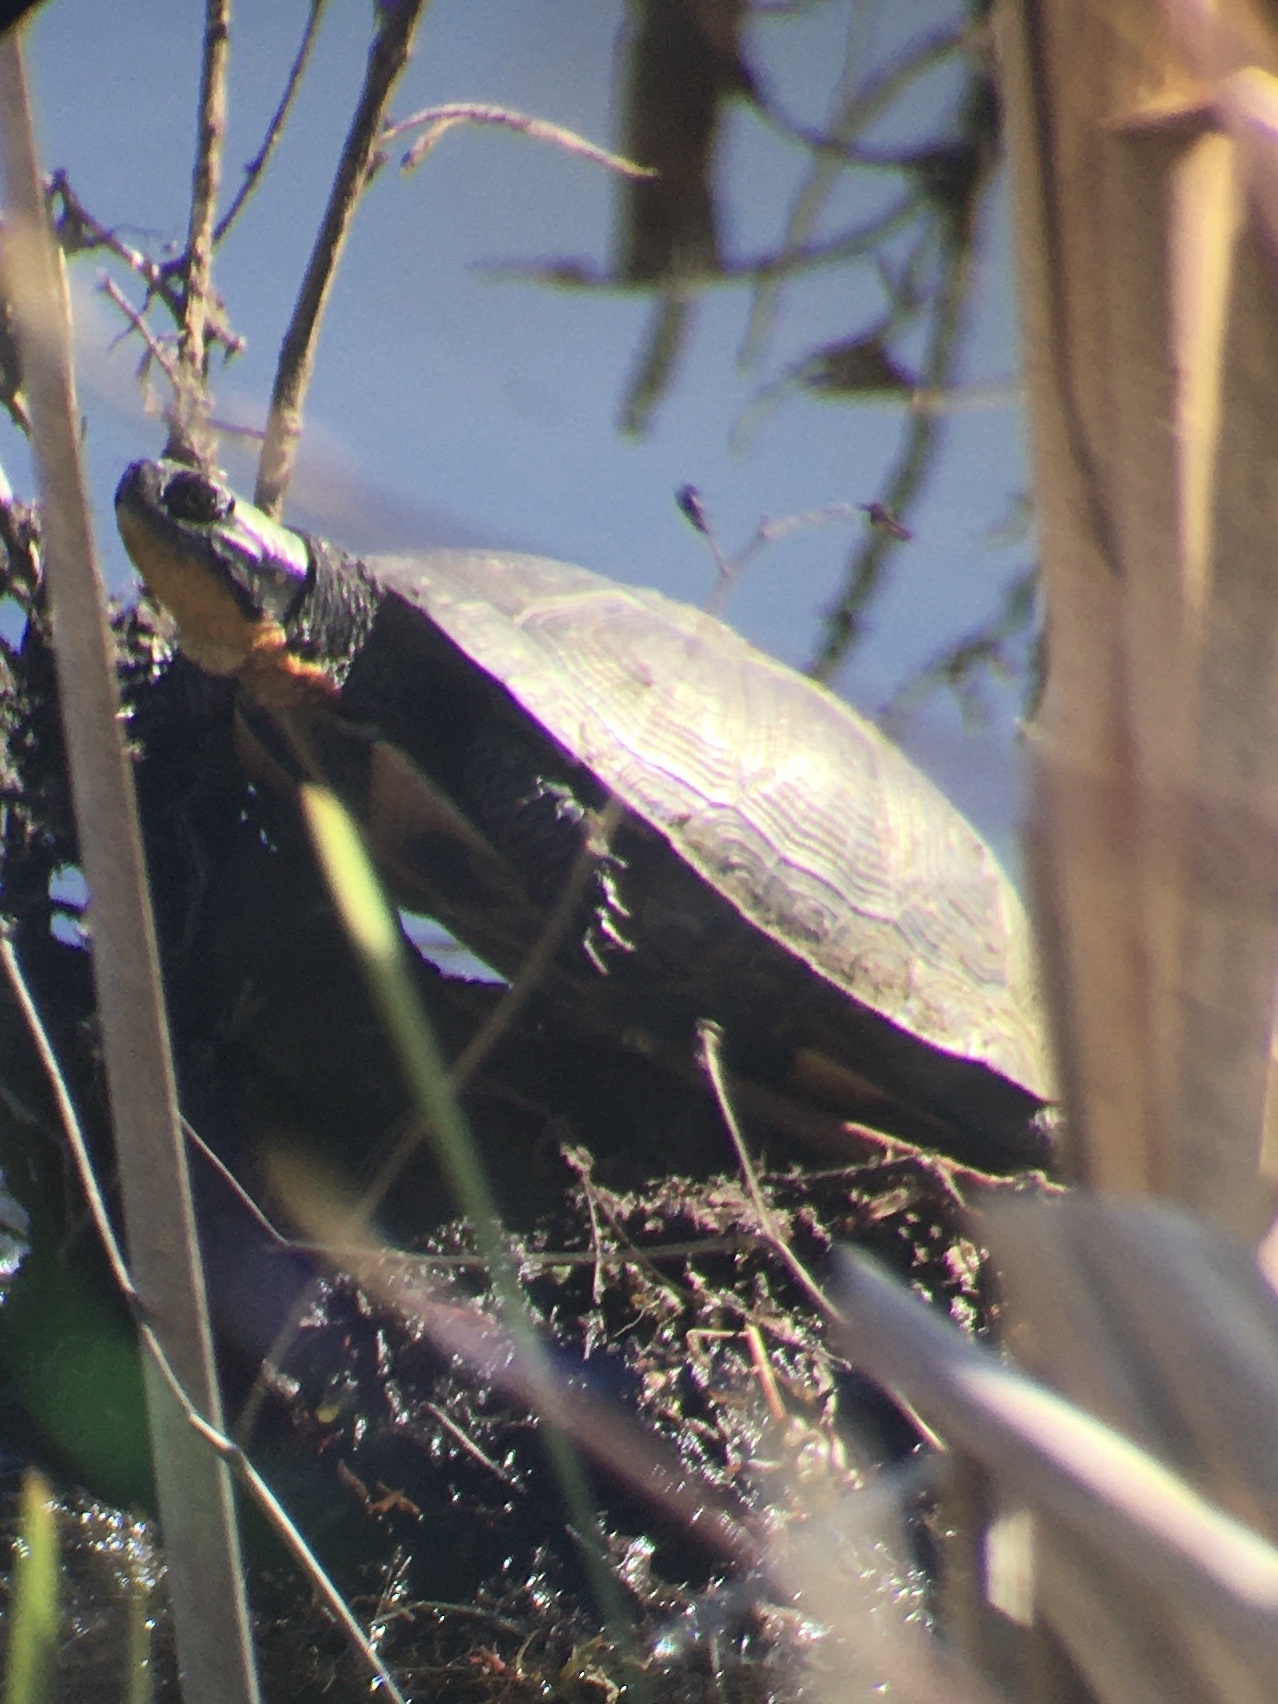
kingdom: Animalia
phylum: Chordata
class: Testudines
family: Emydidae
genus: Emys
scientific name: Emys blandingii
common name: Blanding's turtle
